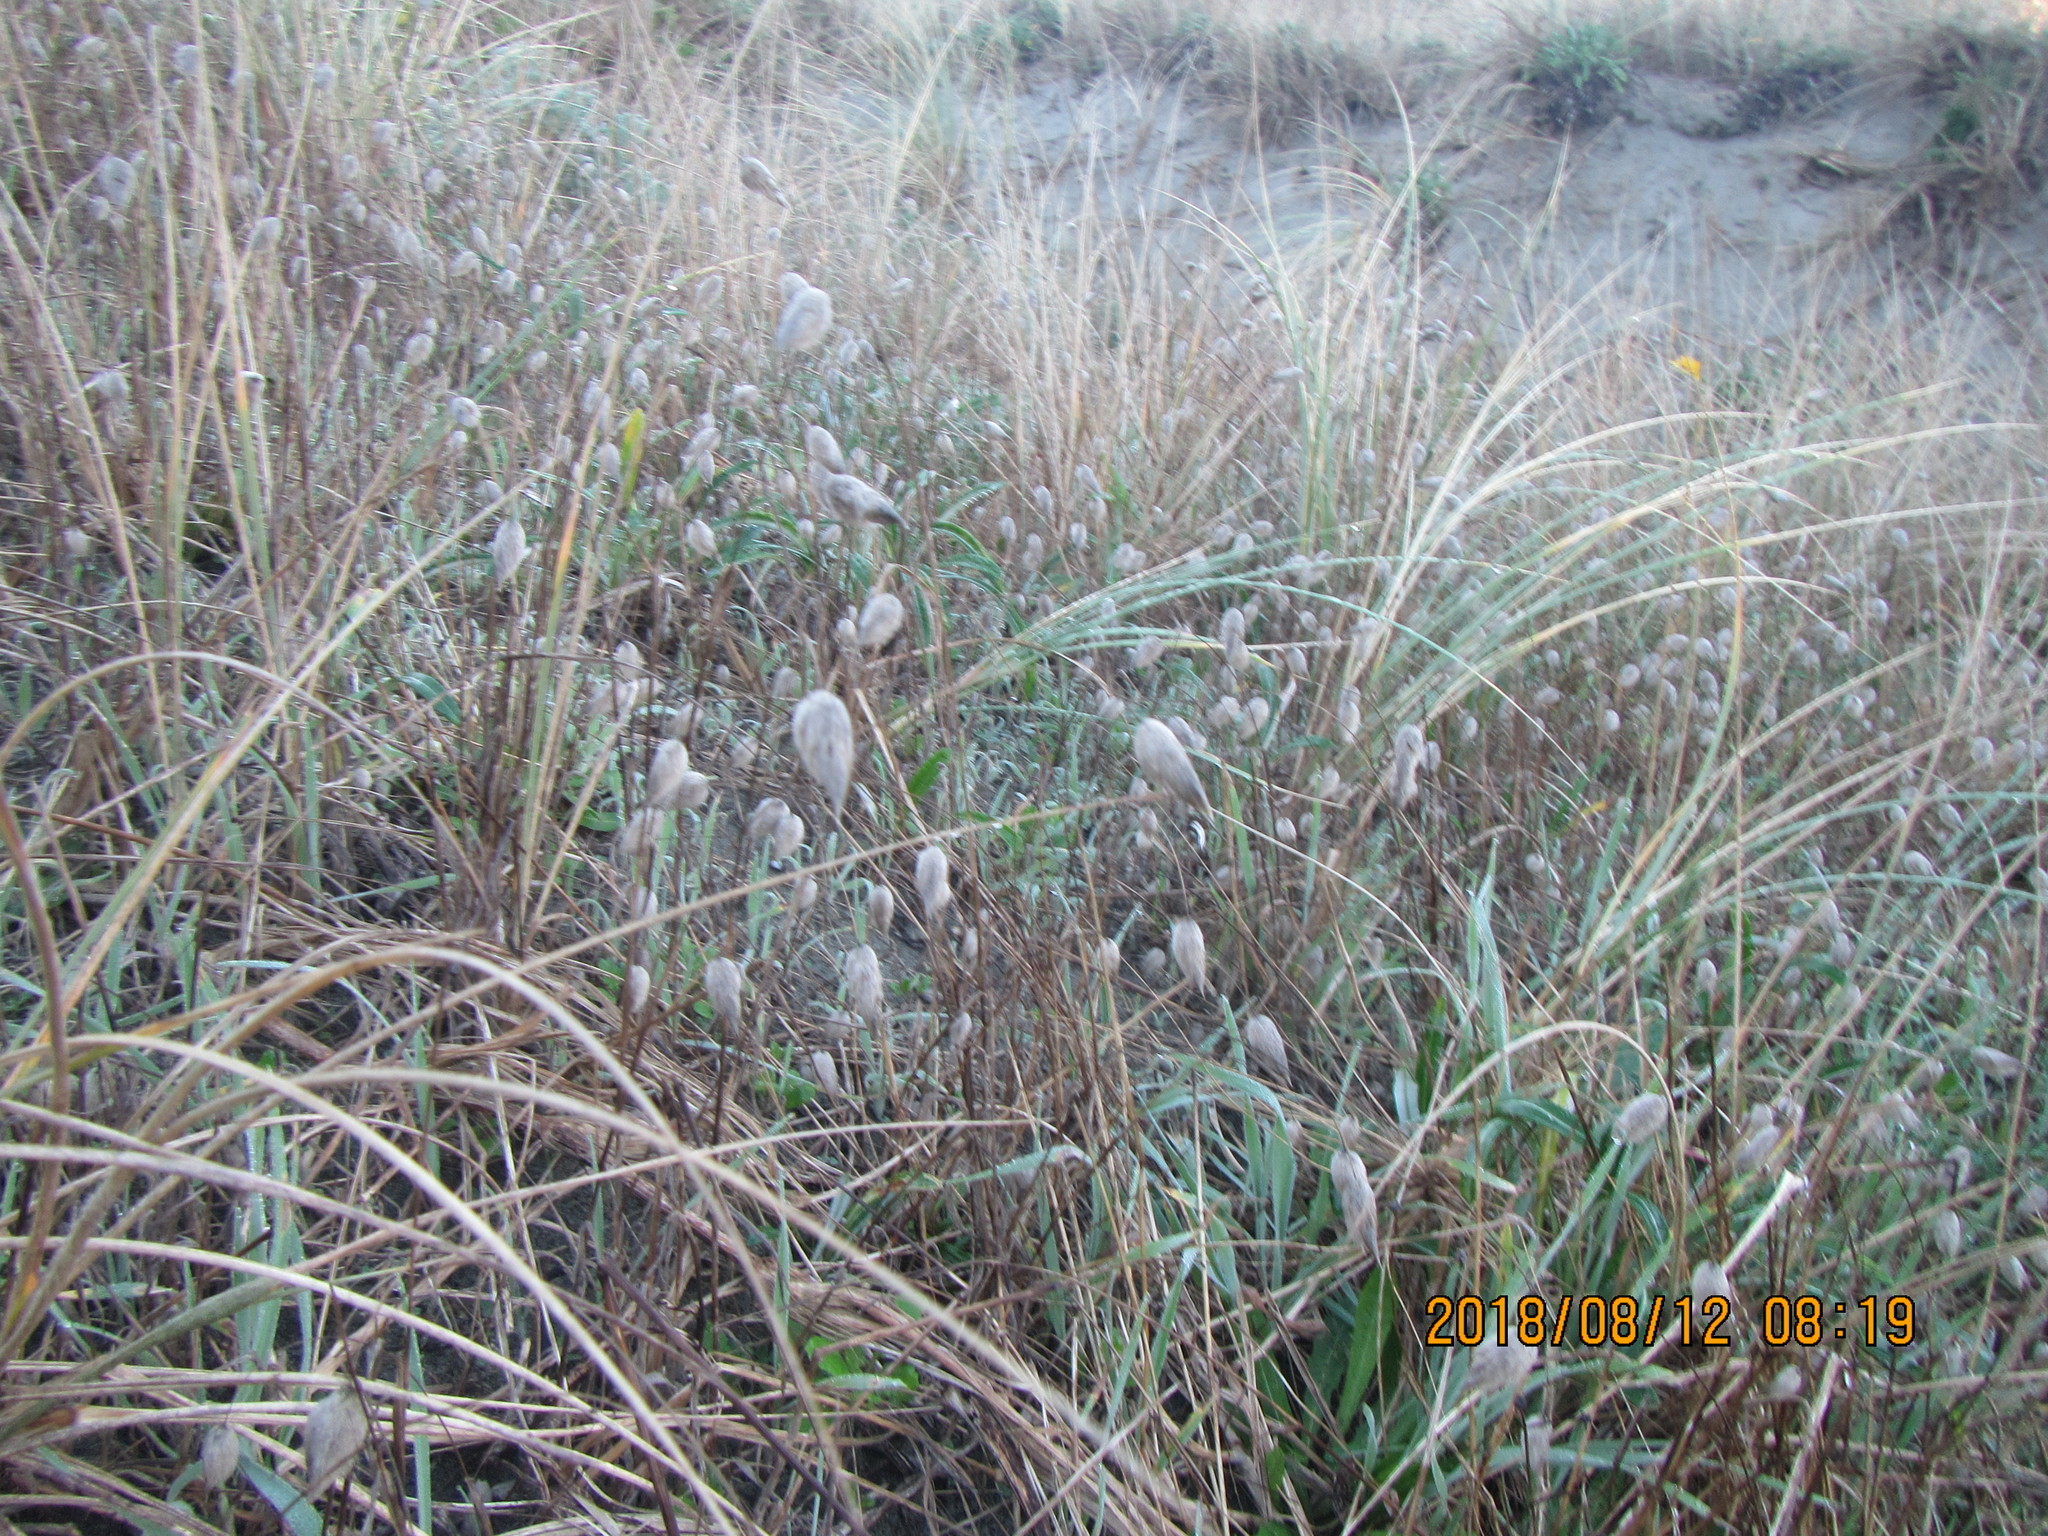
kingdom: Plantae
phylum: Tracheophyta
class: Liliopsida
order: Poales
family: Poaceae
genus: Lagurus
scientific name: Lagurus ovatus
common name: Hare's-tail
